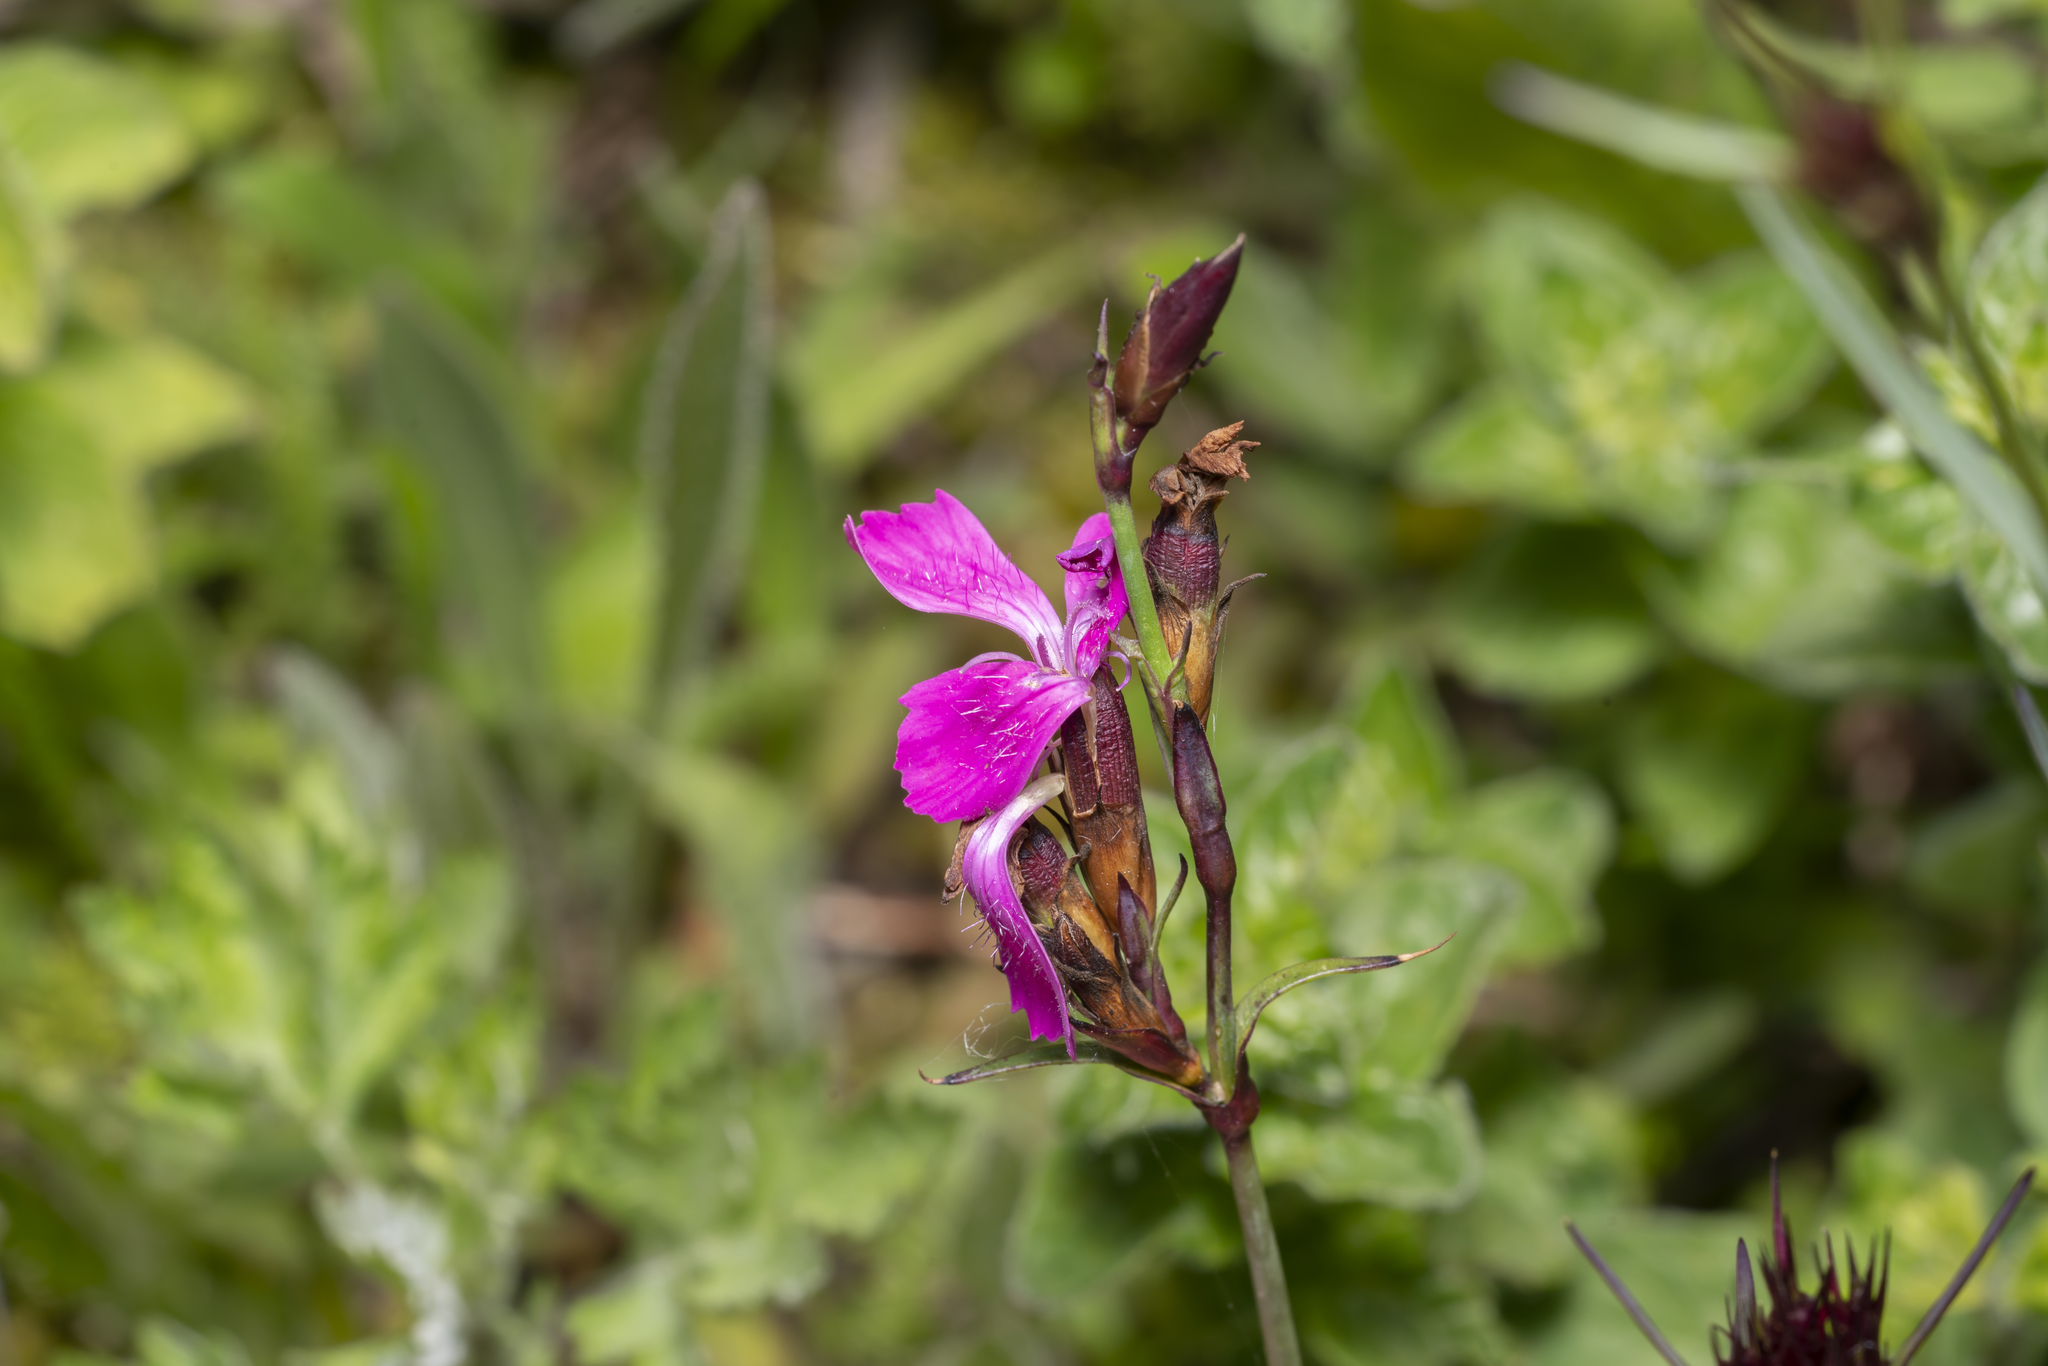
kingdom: Plantae
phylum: Tracheophyta
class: Magnoliopsida
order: Caryophyllales
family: Caryophyllaceae
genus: Dianthus
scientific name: Dianthus carthusianorum
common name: Carthusian pink
